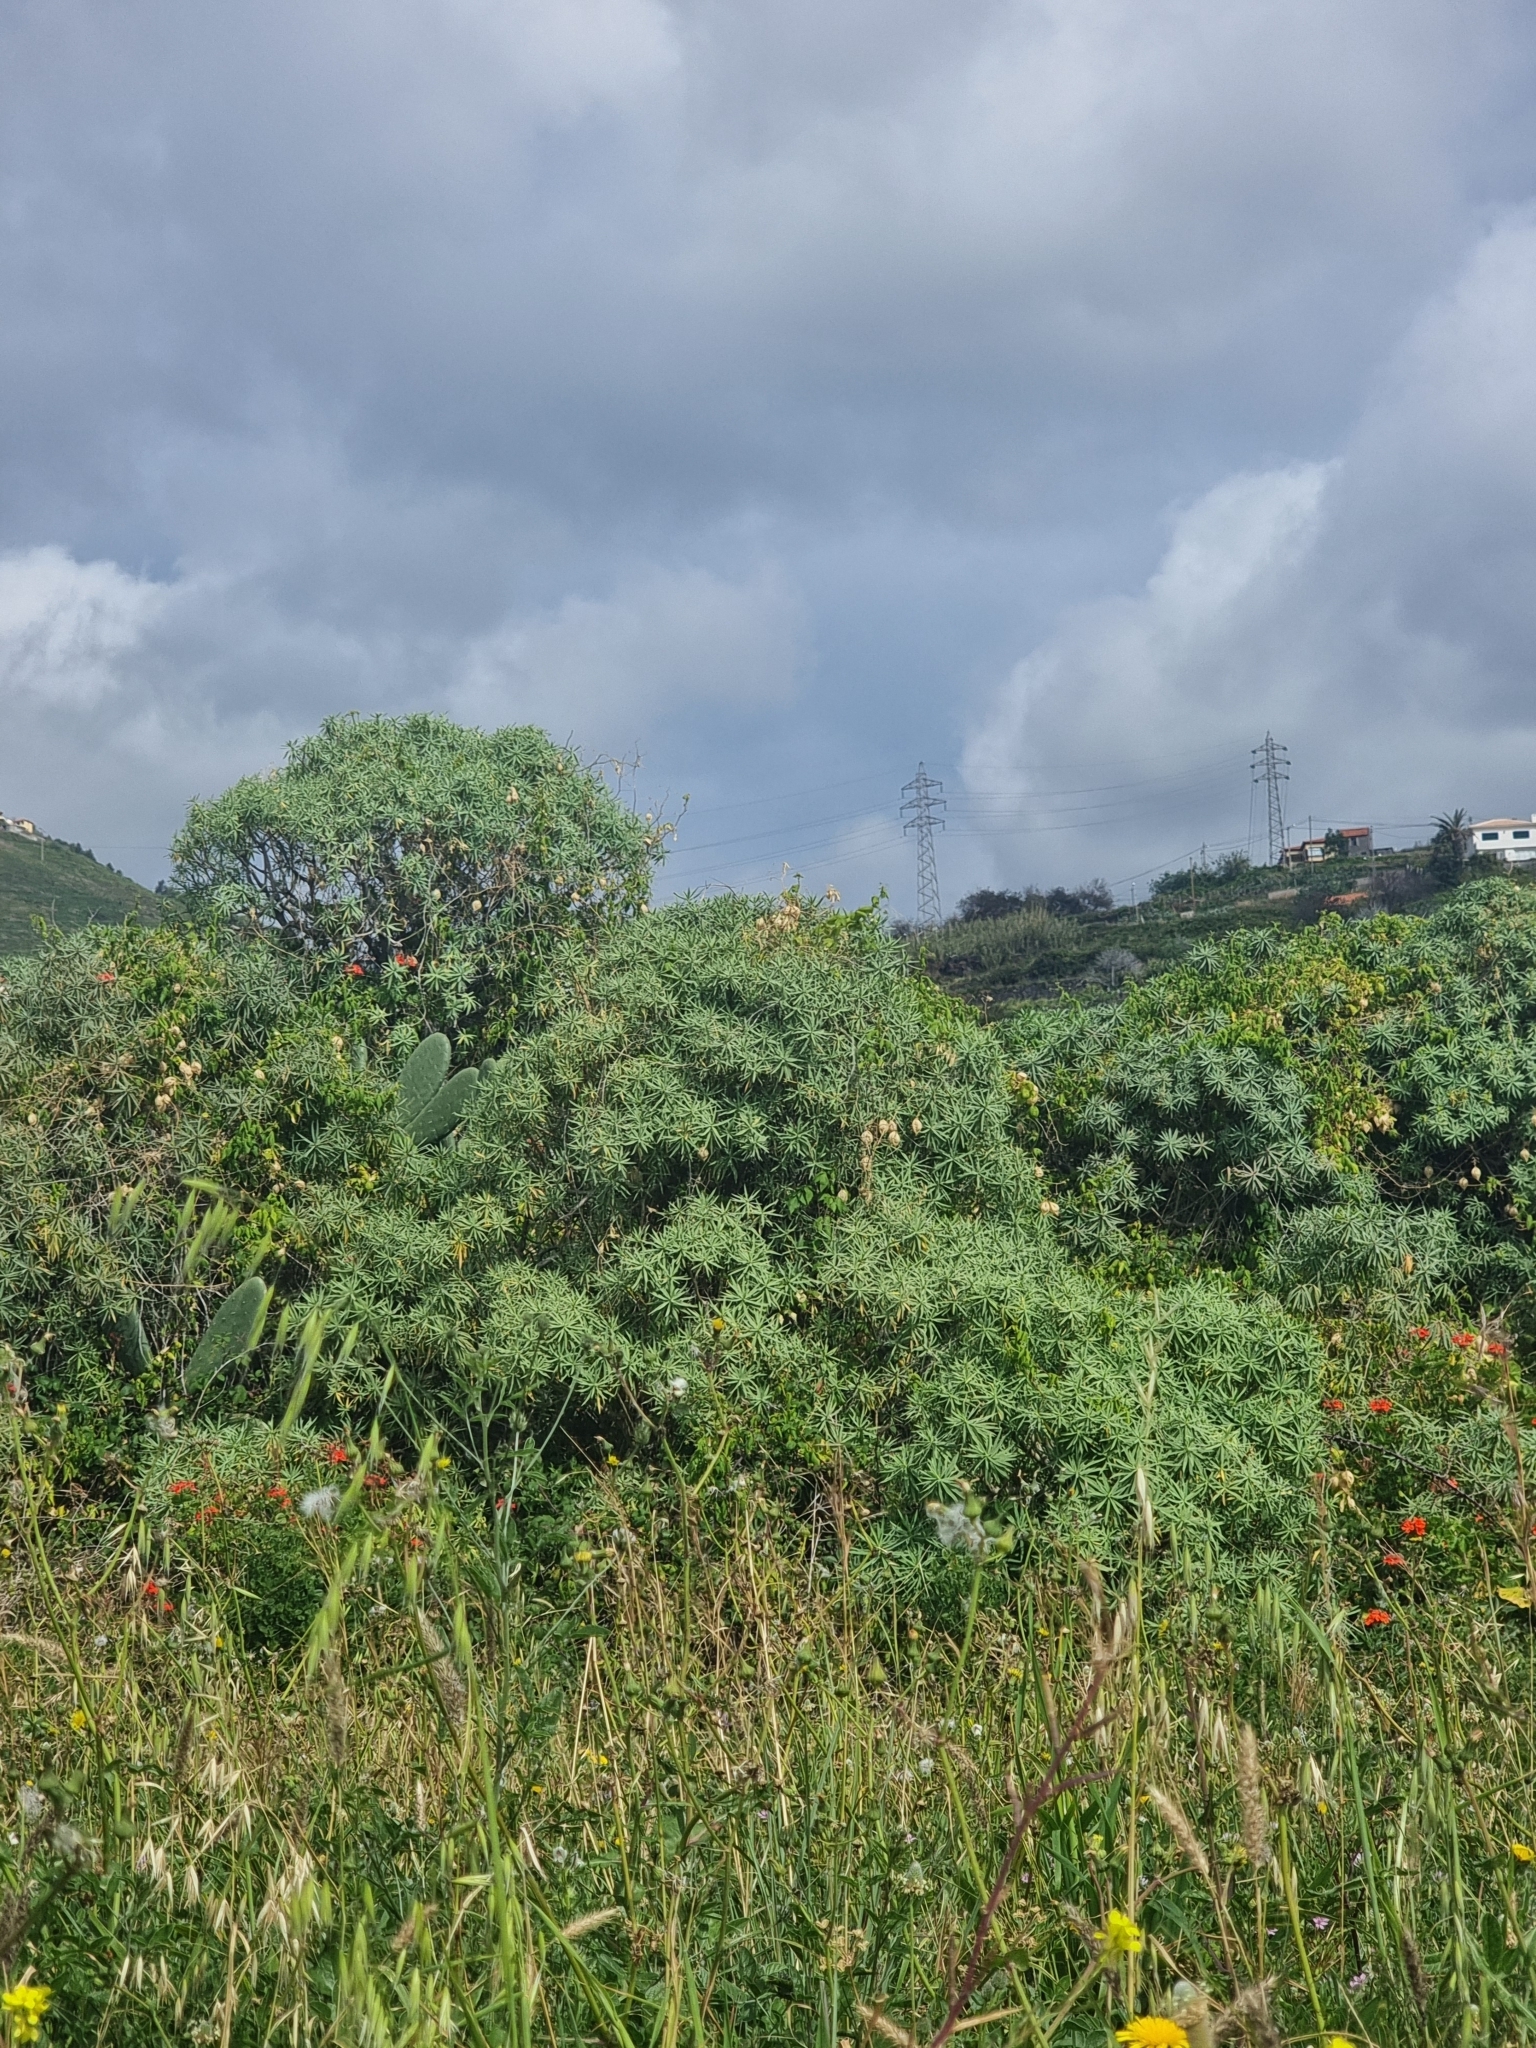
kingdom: Plantae
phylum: Tracheophyta
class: Magnoliopsida
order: Malpighiales
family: Euphorbiaceae
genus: Euphorbia
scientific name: Euphorbia piscatoria
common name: Fish-stunning spurge
